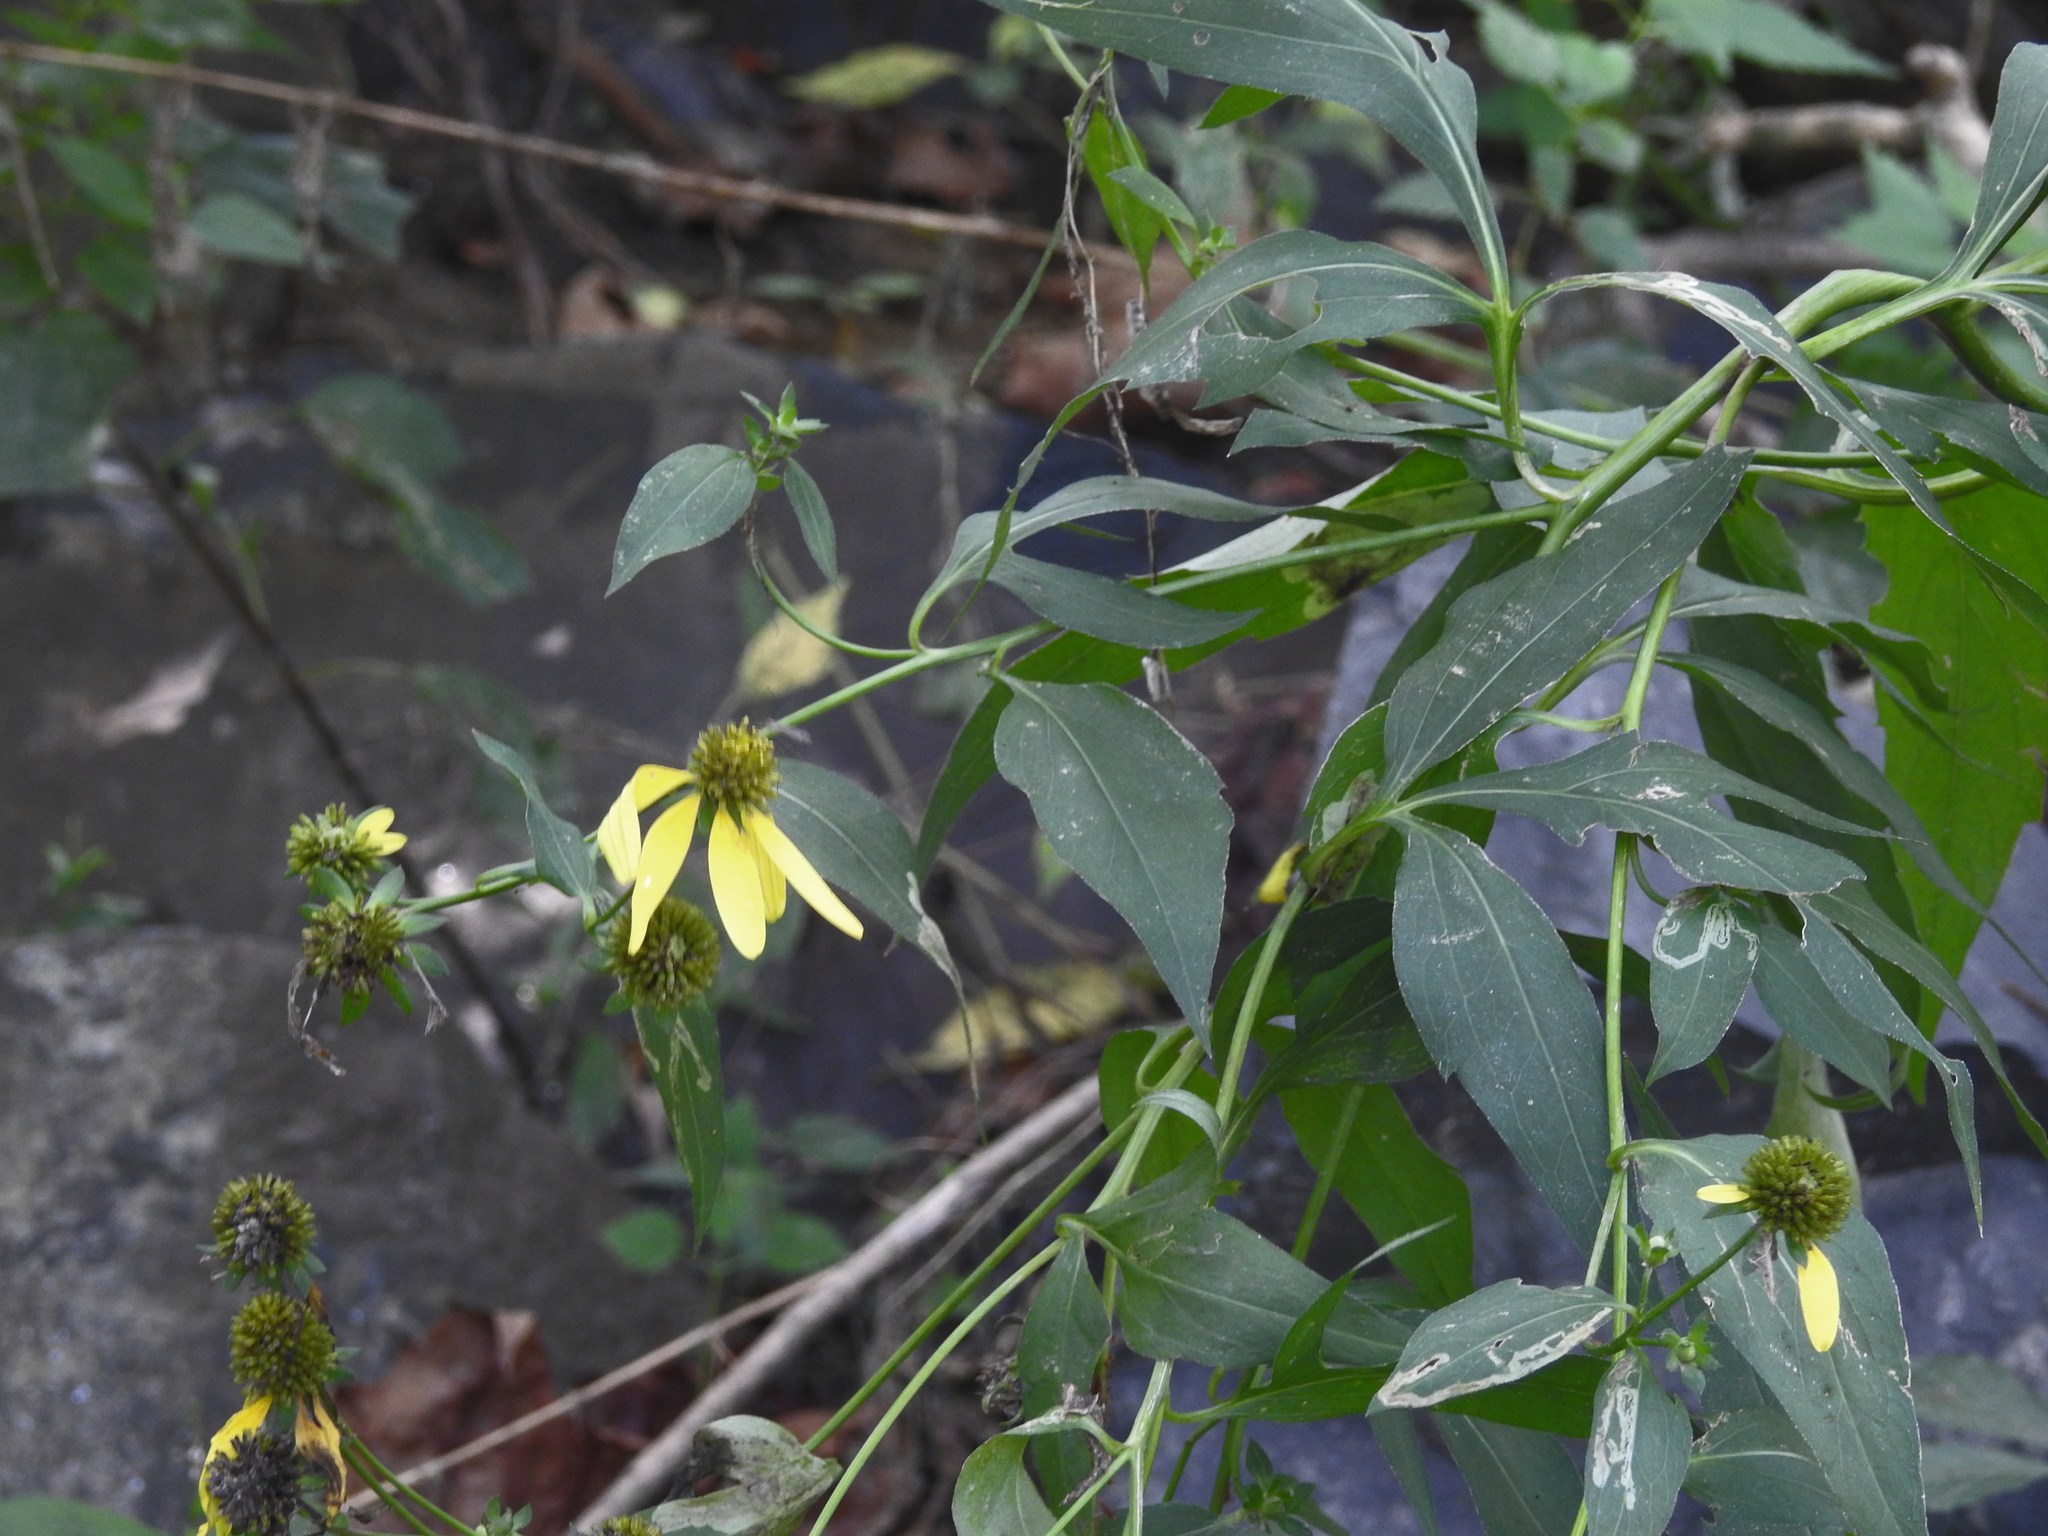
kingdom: Plantae
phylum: Tracheophyta
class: Magnoliopsida
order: Asterales
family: Asteraceae
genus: Rudbeckia
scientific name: Rudbeckia laciniata
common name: Coneflower
